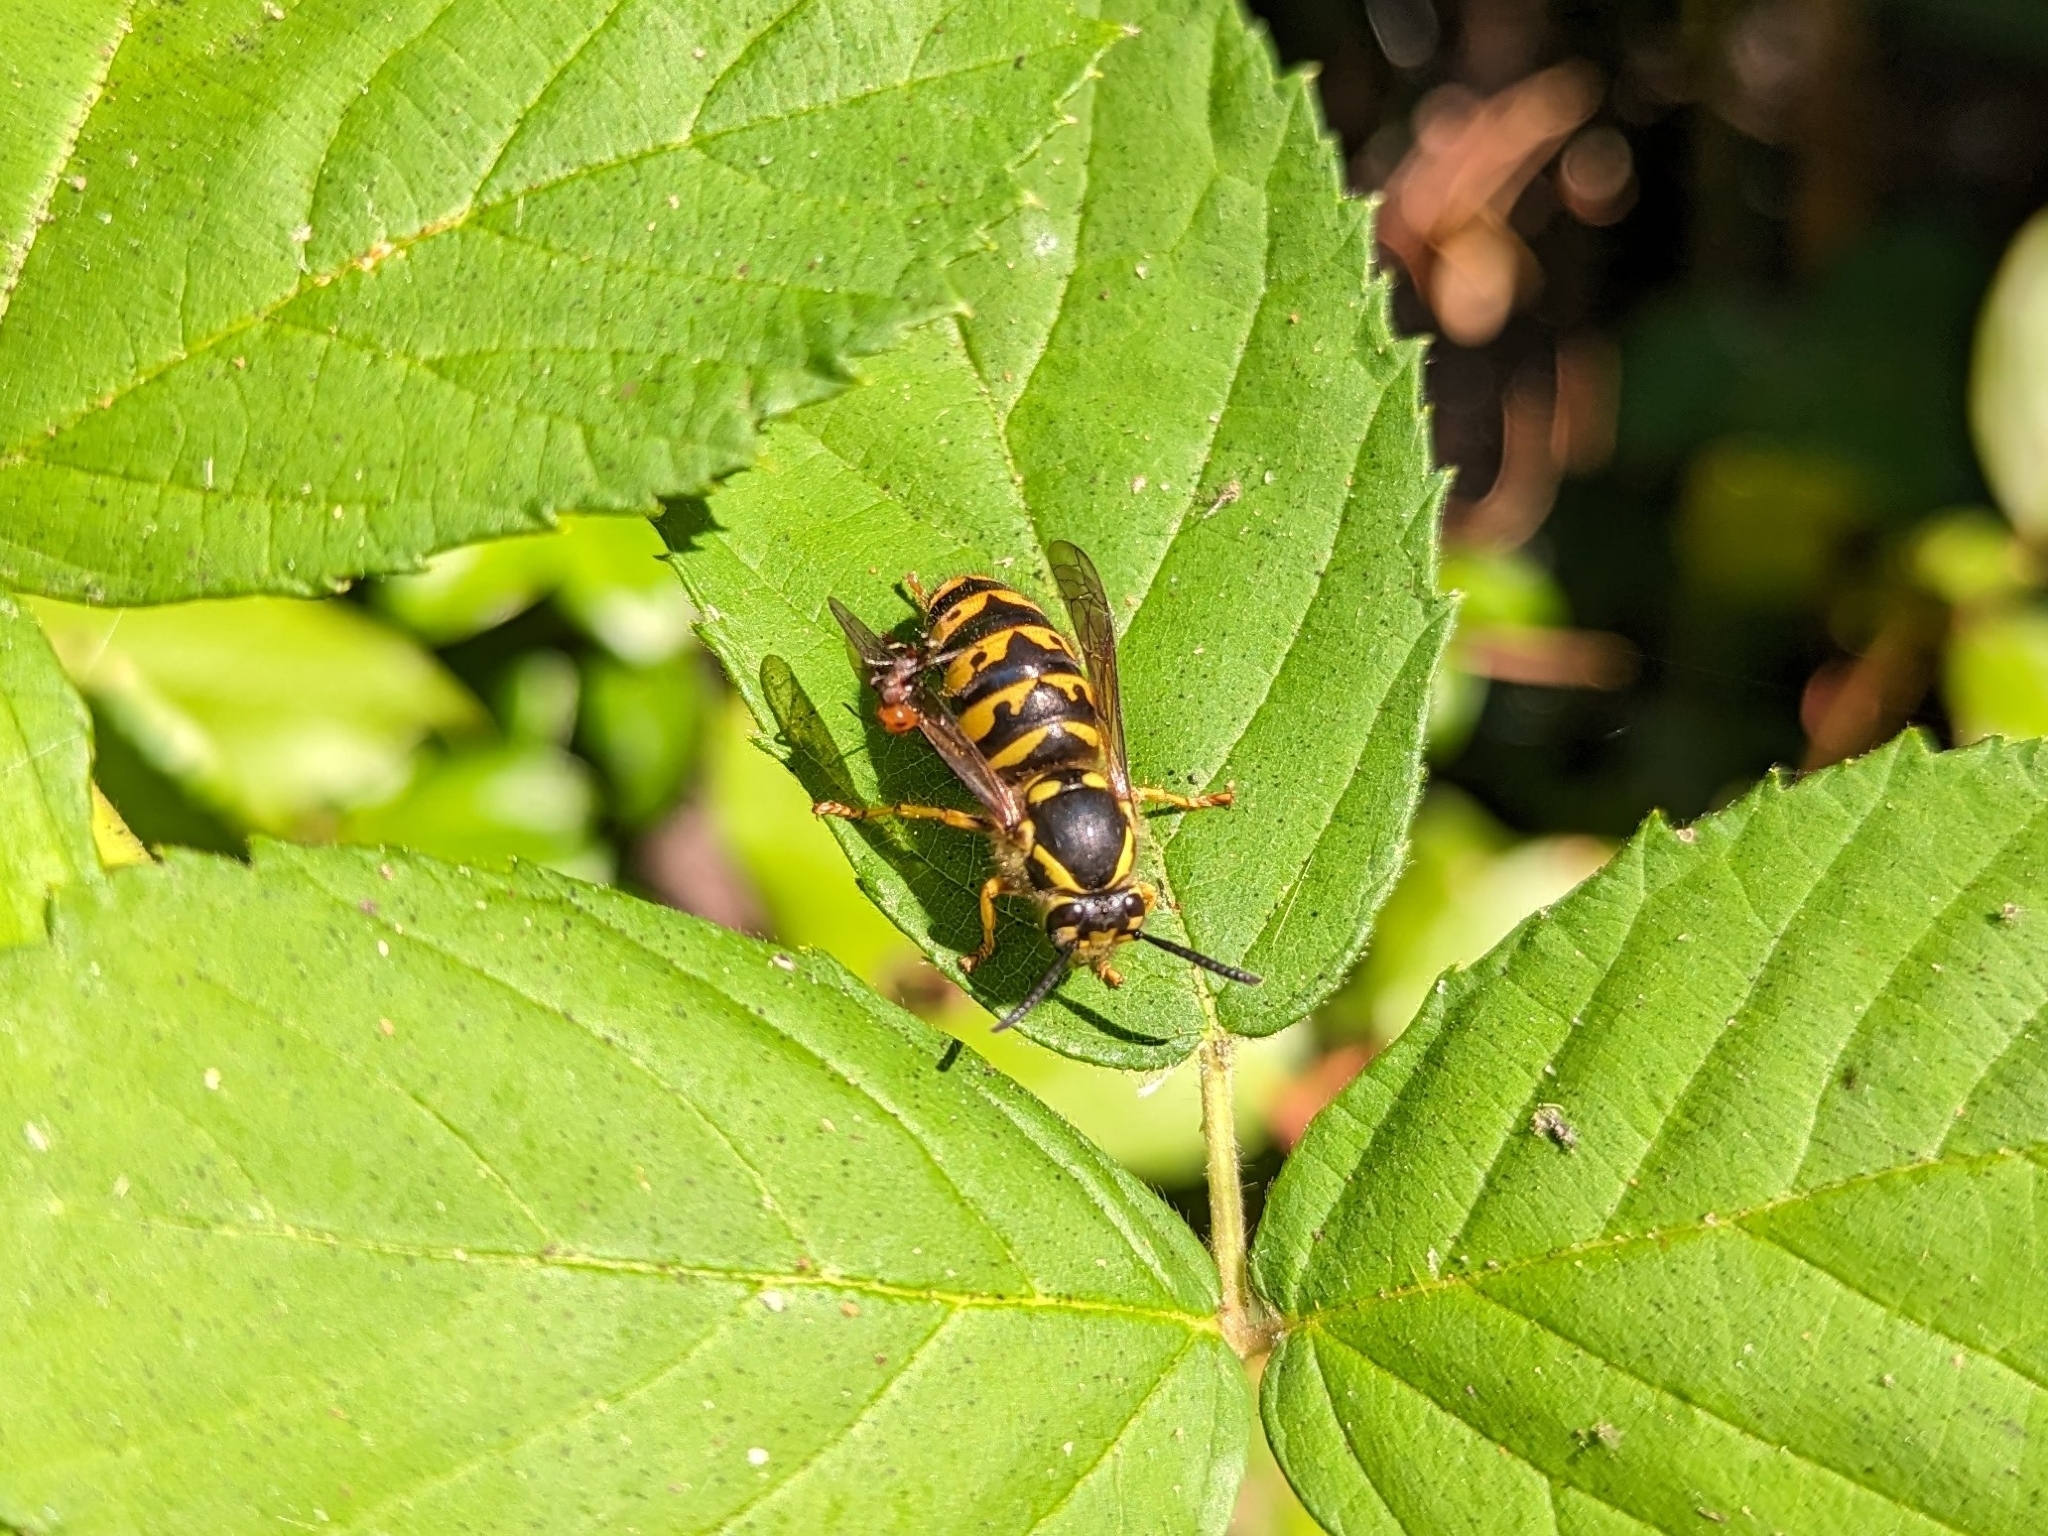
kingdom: Animalia
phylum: Arthropoda
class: Insecta
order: Hymenoptera
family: Vespidae
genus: Dolichovespula
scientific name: Dolichovespula arenaria
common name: Aerial yellowjacket
